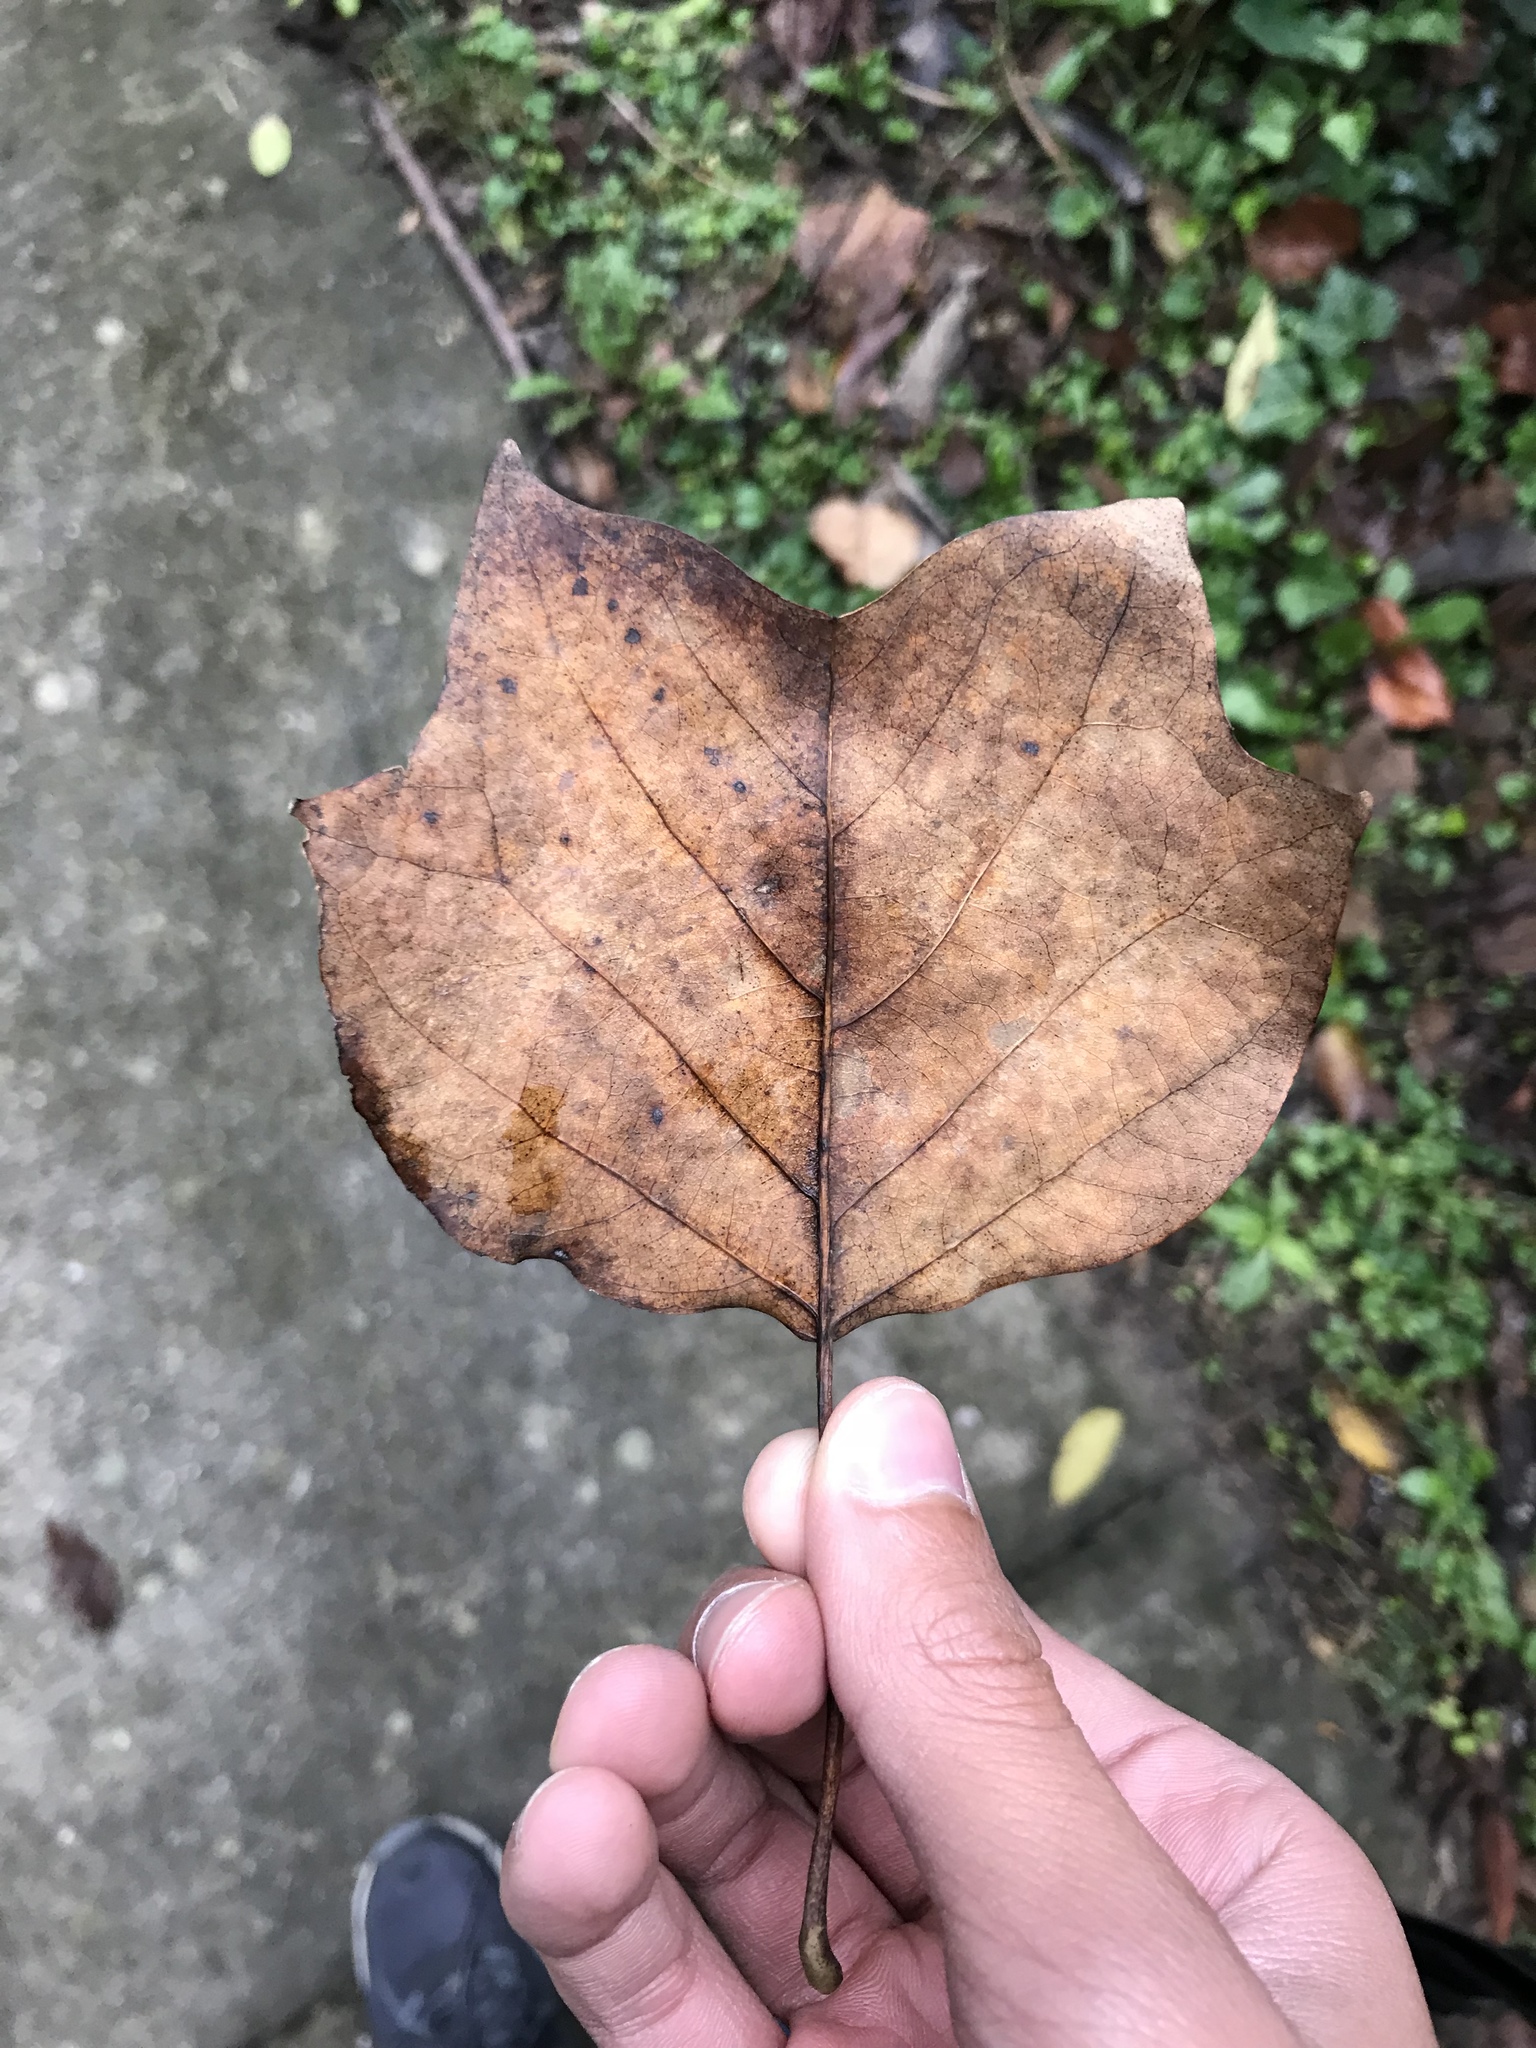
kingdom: Plantae
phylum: Tracheophyta
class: Magnoliopsida
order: Magnoliales
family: Magnoliaceae
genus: Liriodendron
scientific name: Liriodendron tulipifera
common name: Tulip tree
